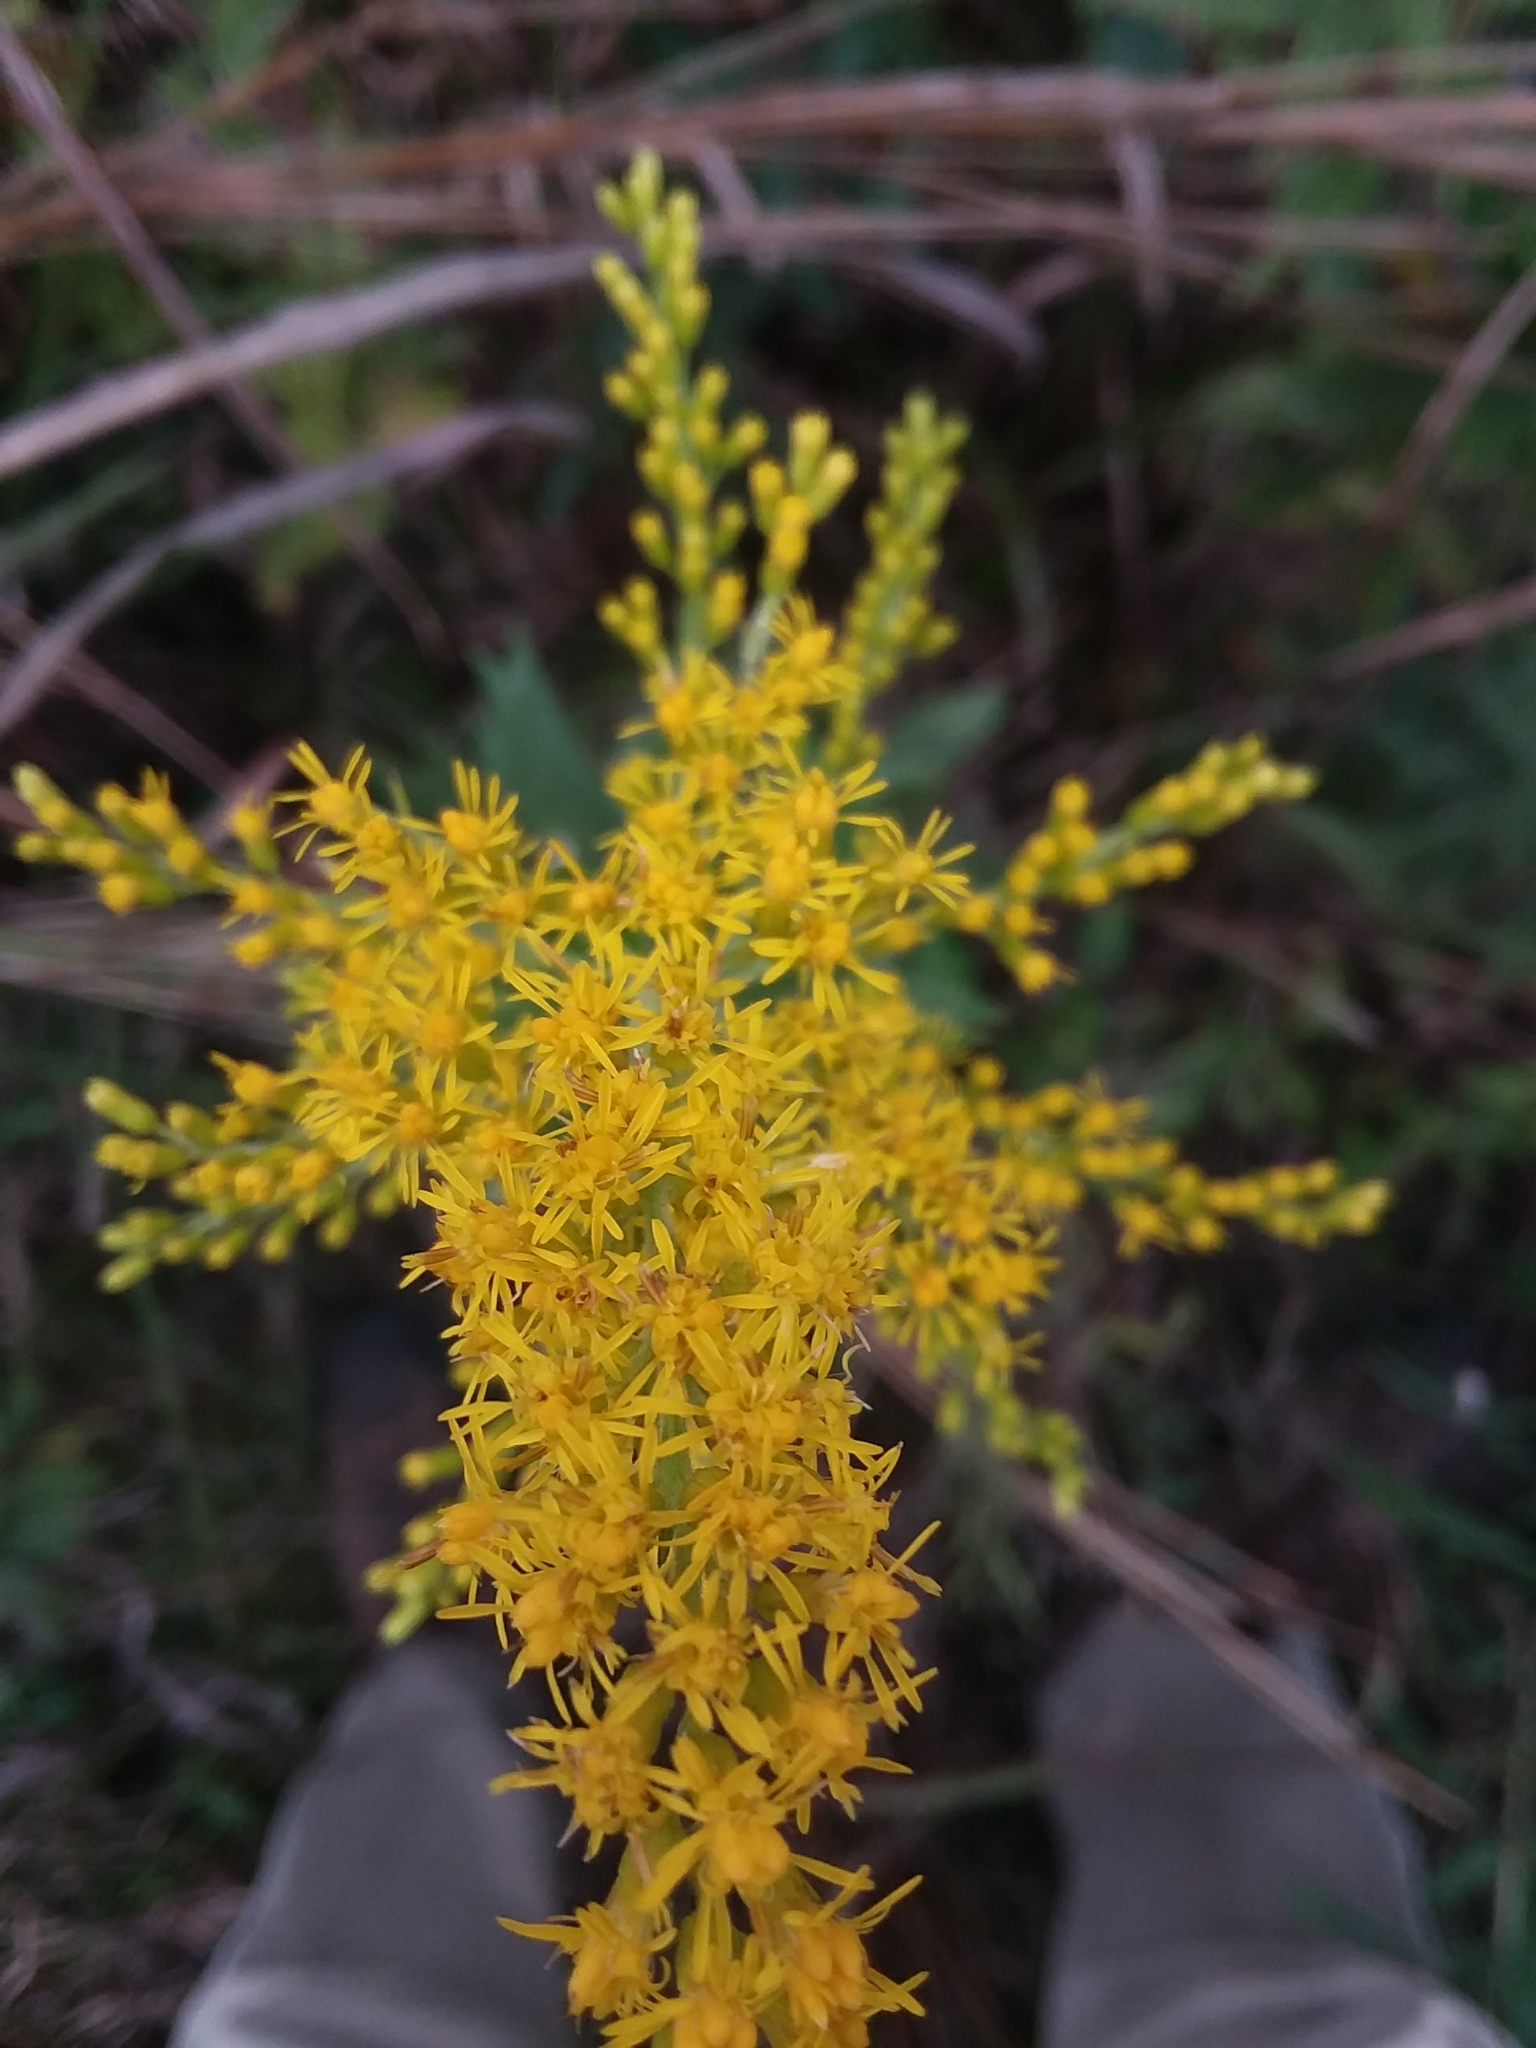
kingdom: Plantae
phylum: Tracheophyta
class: Magnoliopsida
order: Asterales
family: Asteraceae
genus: Solidago
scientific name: Solidago altissima
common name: Late goldenrod
